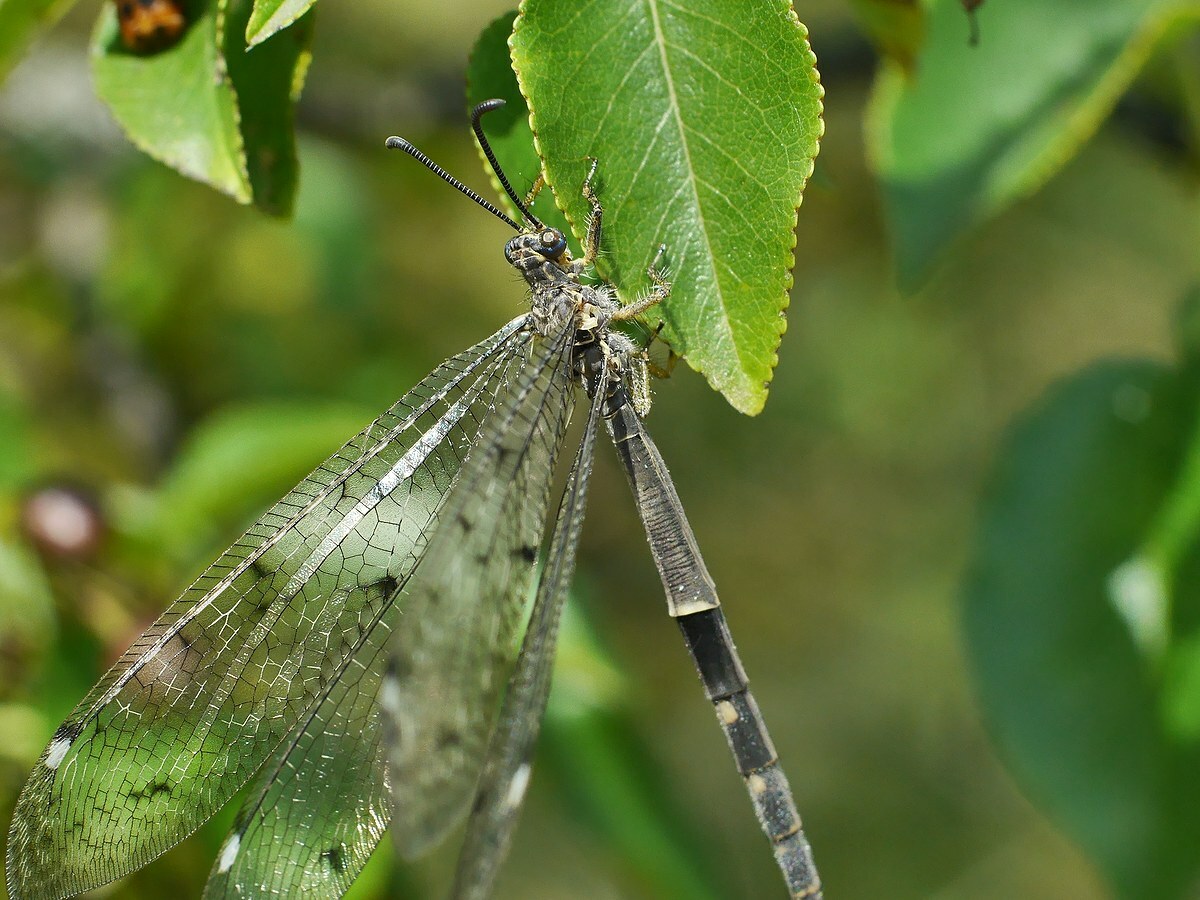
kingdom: Animalia
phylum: Arthropoda
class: Insecta
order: Neuroptera
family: Myrmeleontidae
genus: Distoleon
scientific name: Distoleon tetragrammicus
